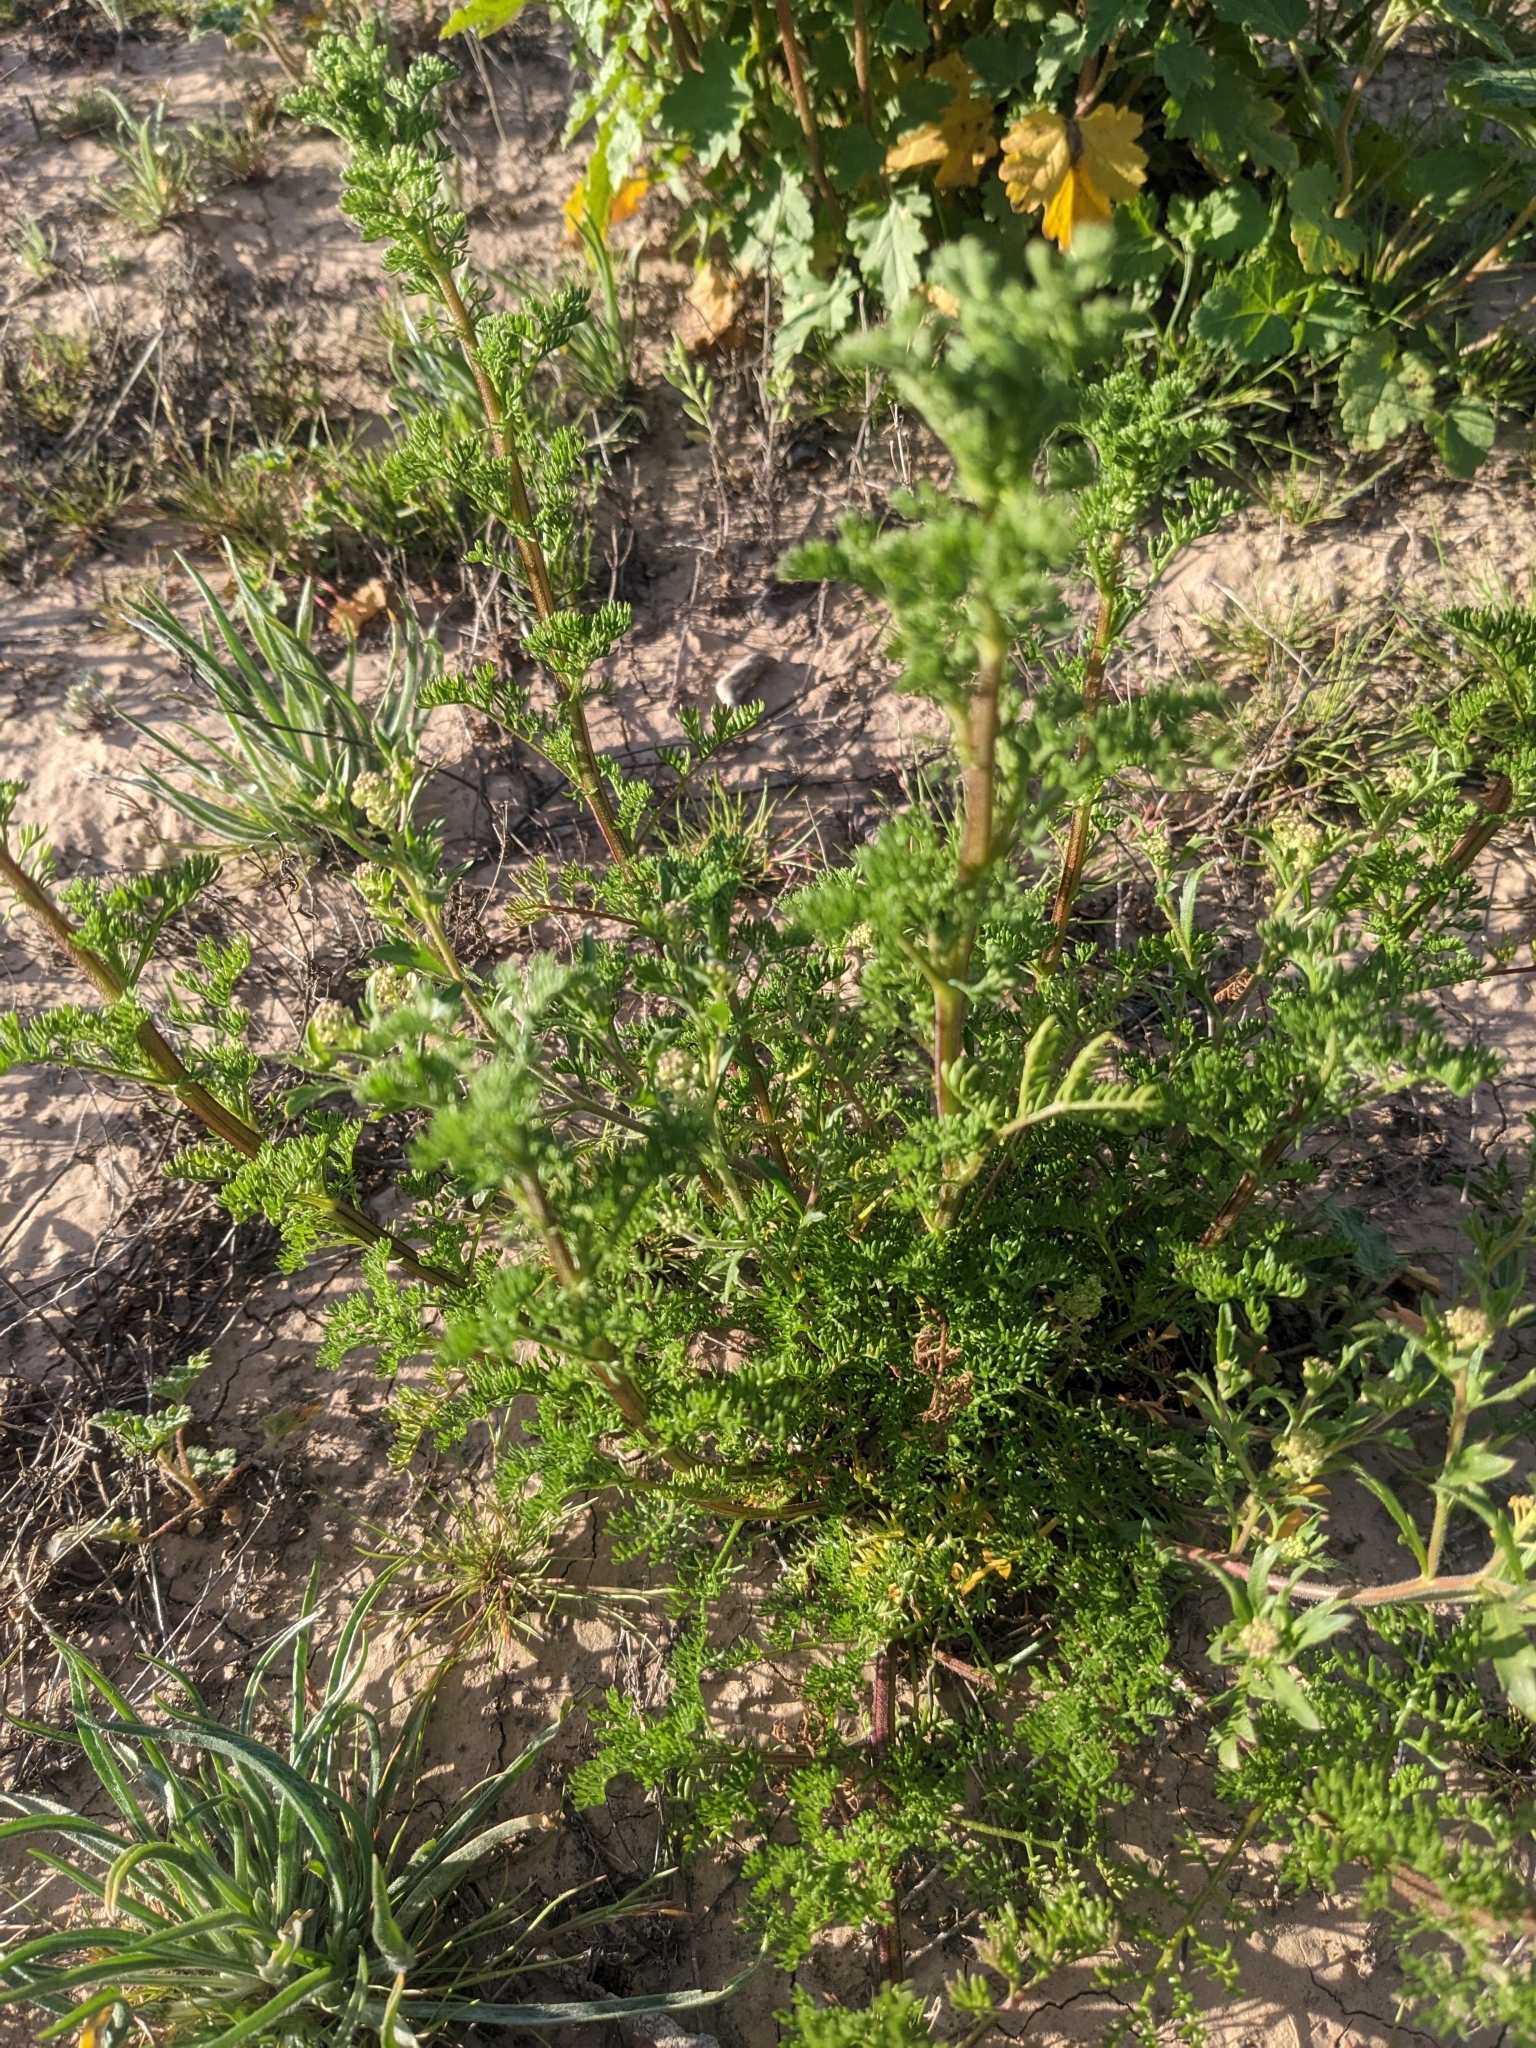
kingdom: Plantae
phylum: Tracheophyta
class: Magnoliopsida
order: Asterales
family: Asteraceae
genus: Oncosiphon
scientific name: Oncosiphon pilulifer
